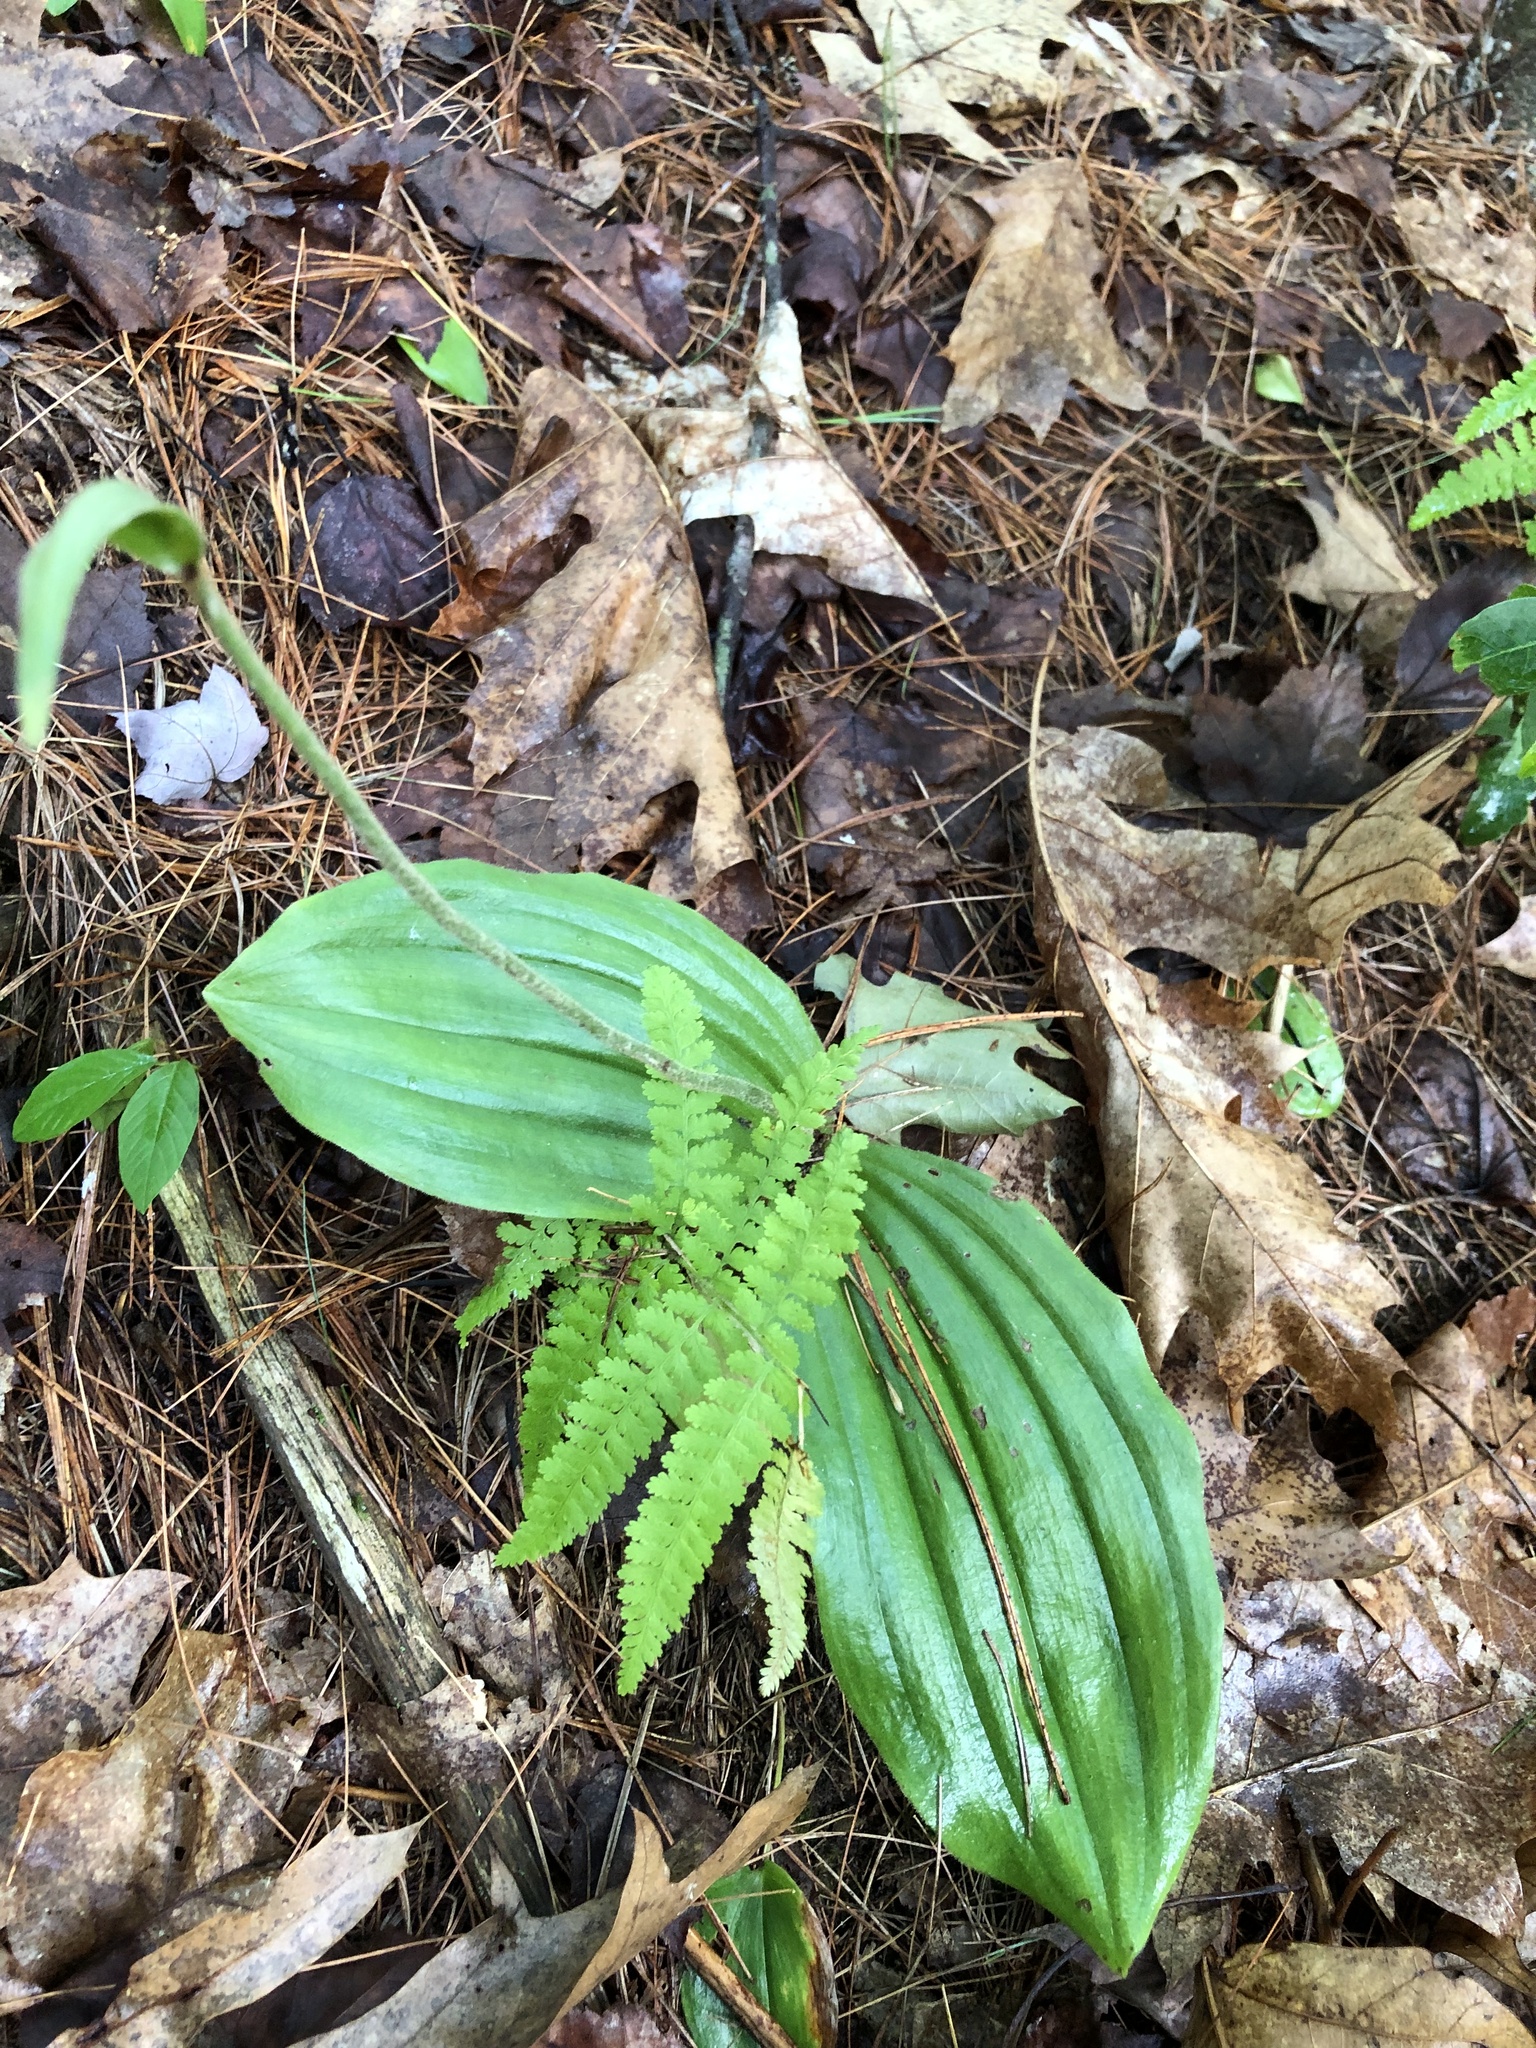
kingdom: Plantae
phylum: Tracheophyta
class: Liliopsida
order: Asparagales
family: Orchidaceae
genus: Cypripedium
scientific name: Cypripedium acaule
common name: Pink lady's-slipper
